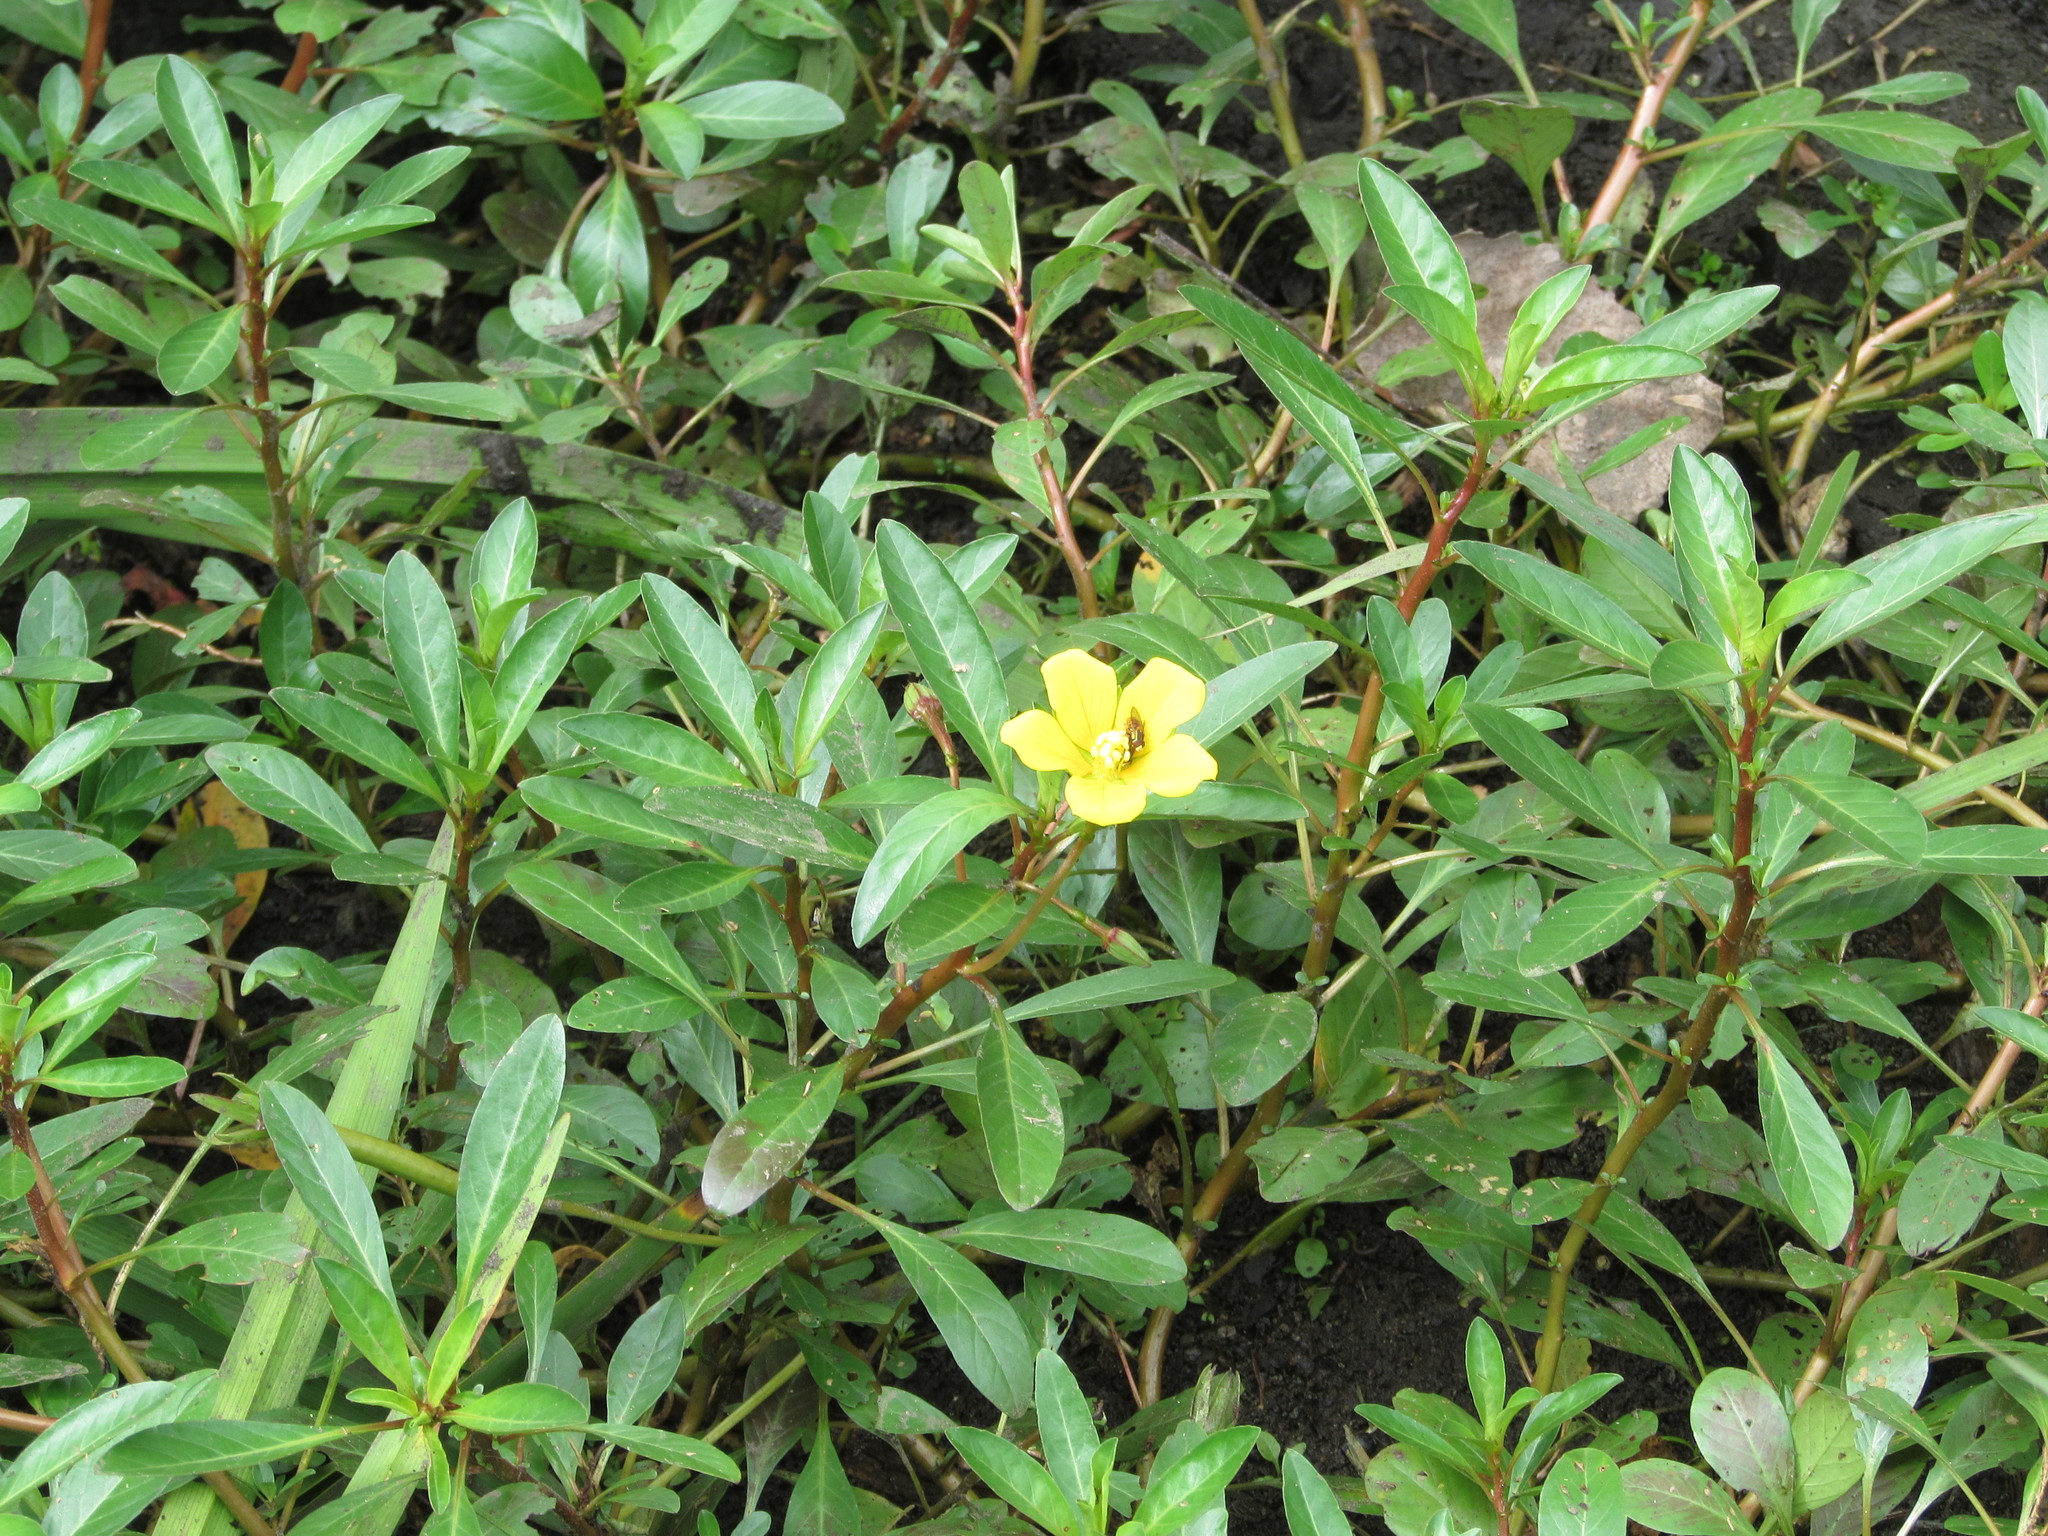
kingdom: Plantae
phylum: Tracheophyta
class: Magnoliopsida
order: Myrtales
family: Onagraceae
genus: Ludwigia
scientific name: Ludwigia peploides
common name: Floating primrose-willow
